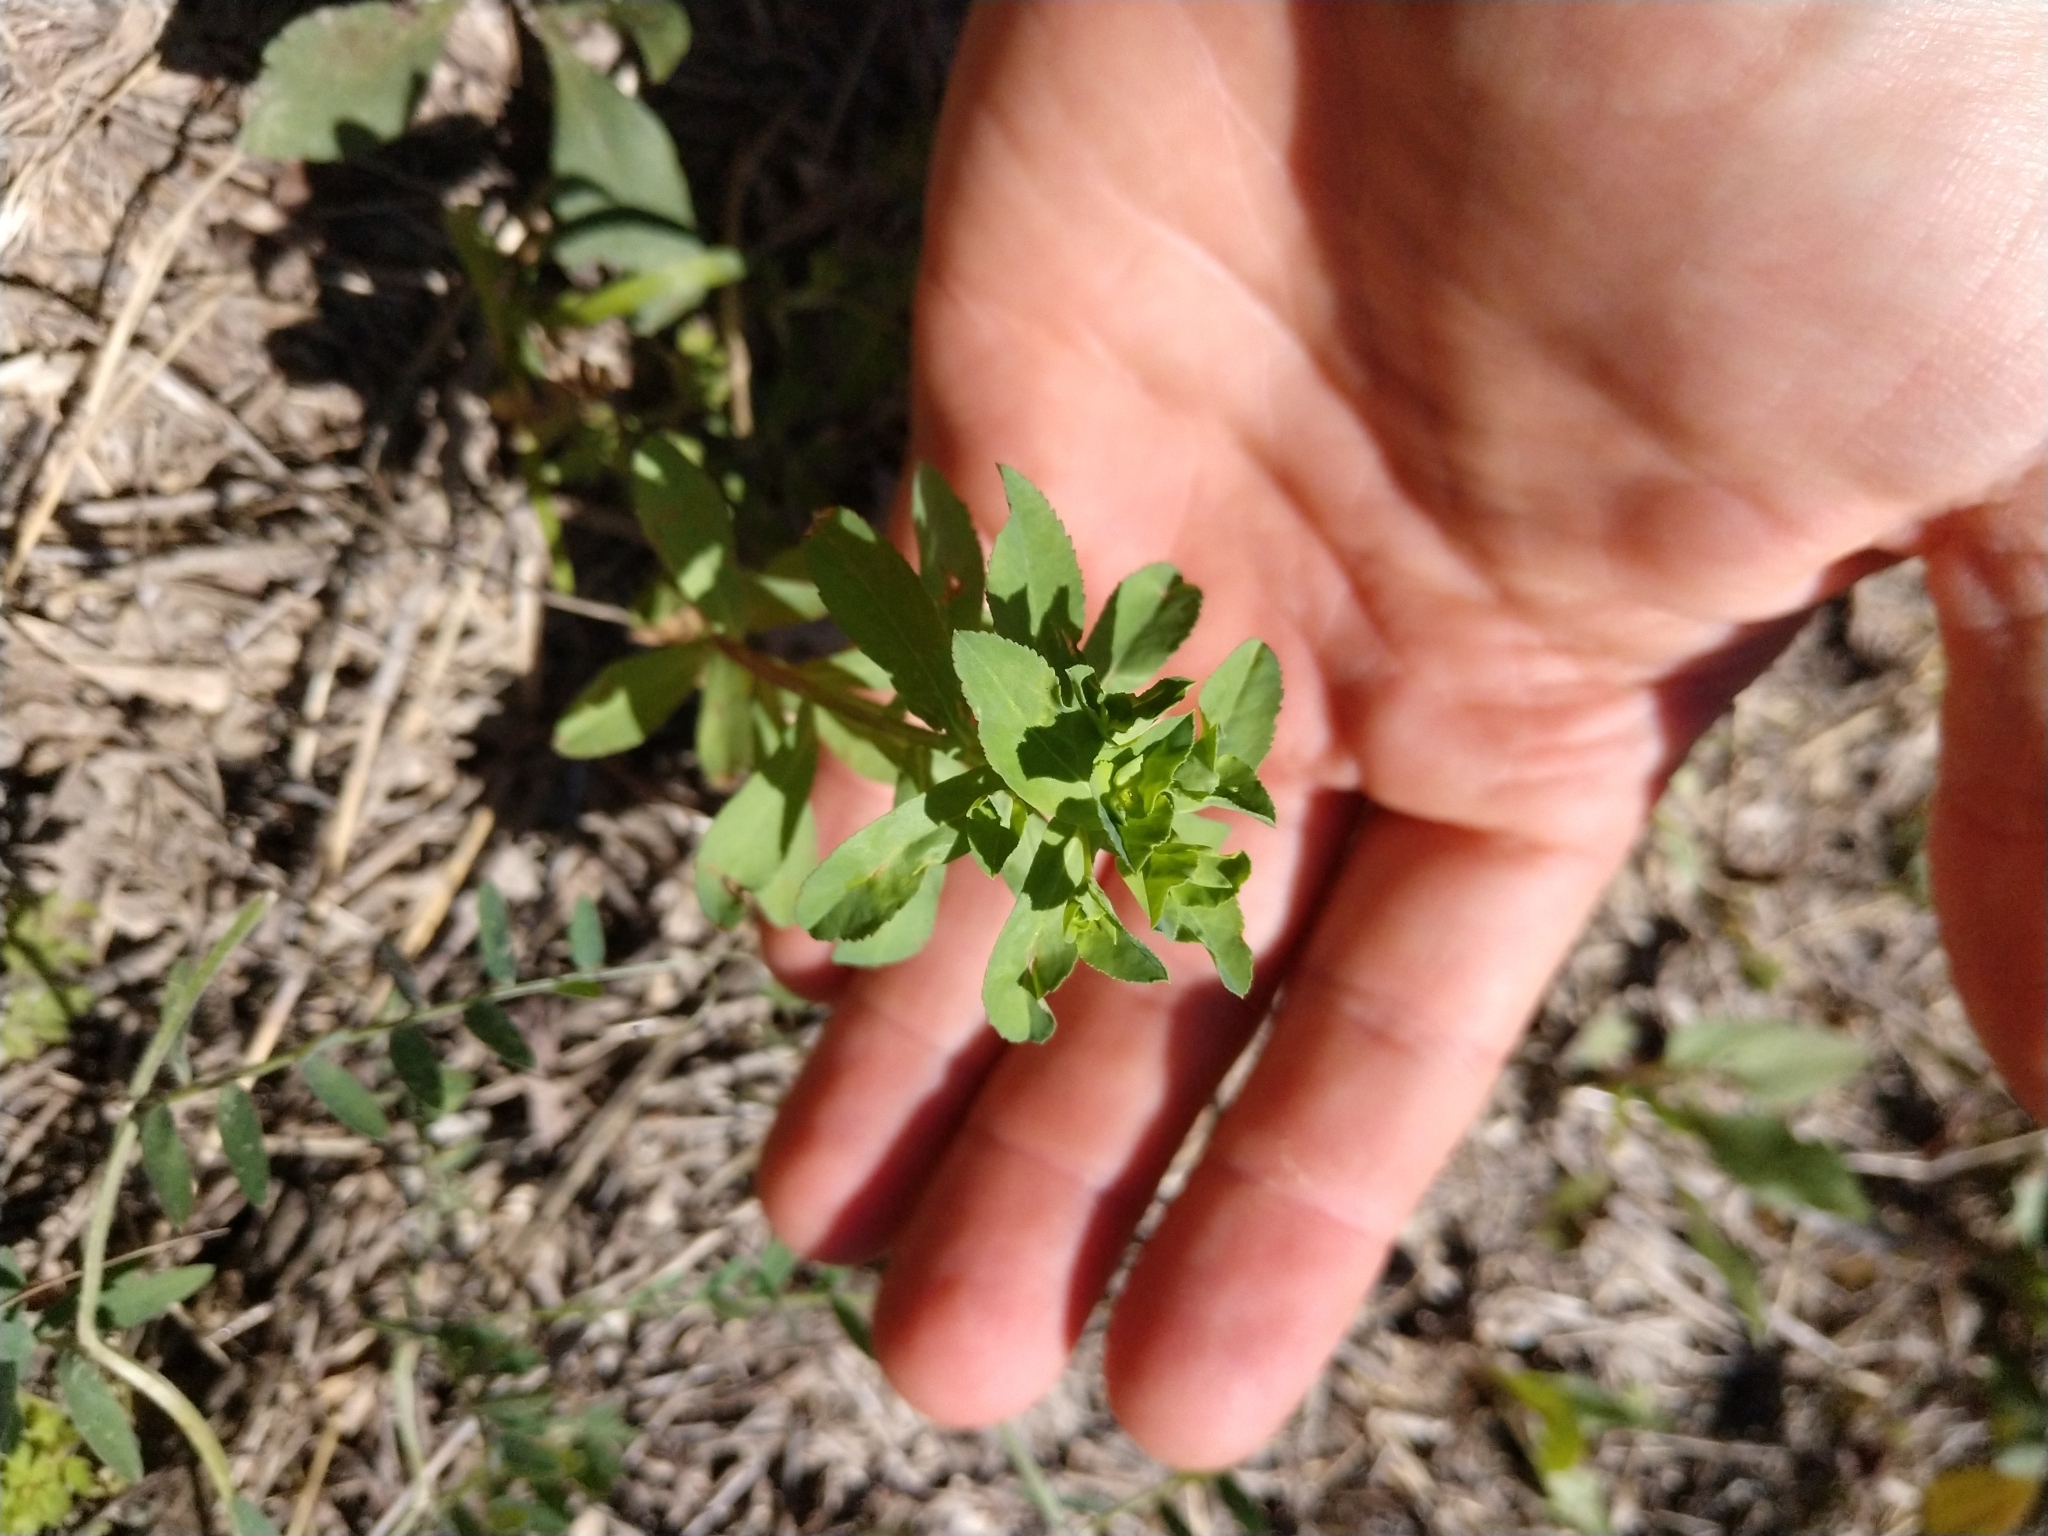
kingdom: Plantae
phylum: Tracheophyta
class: Magnoliopsida
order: Malpighiales
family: Euphorbiaceae
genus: Euphorbia
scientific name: Euphorbia spathulata
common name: Blunt spurge
